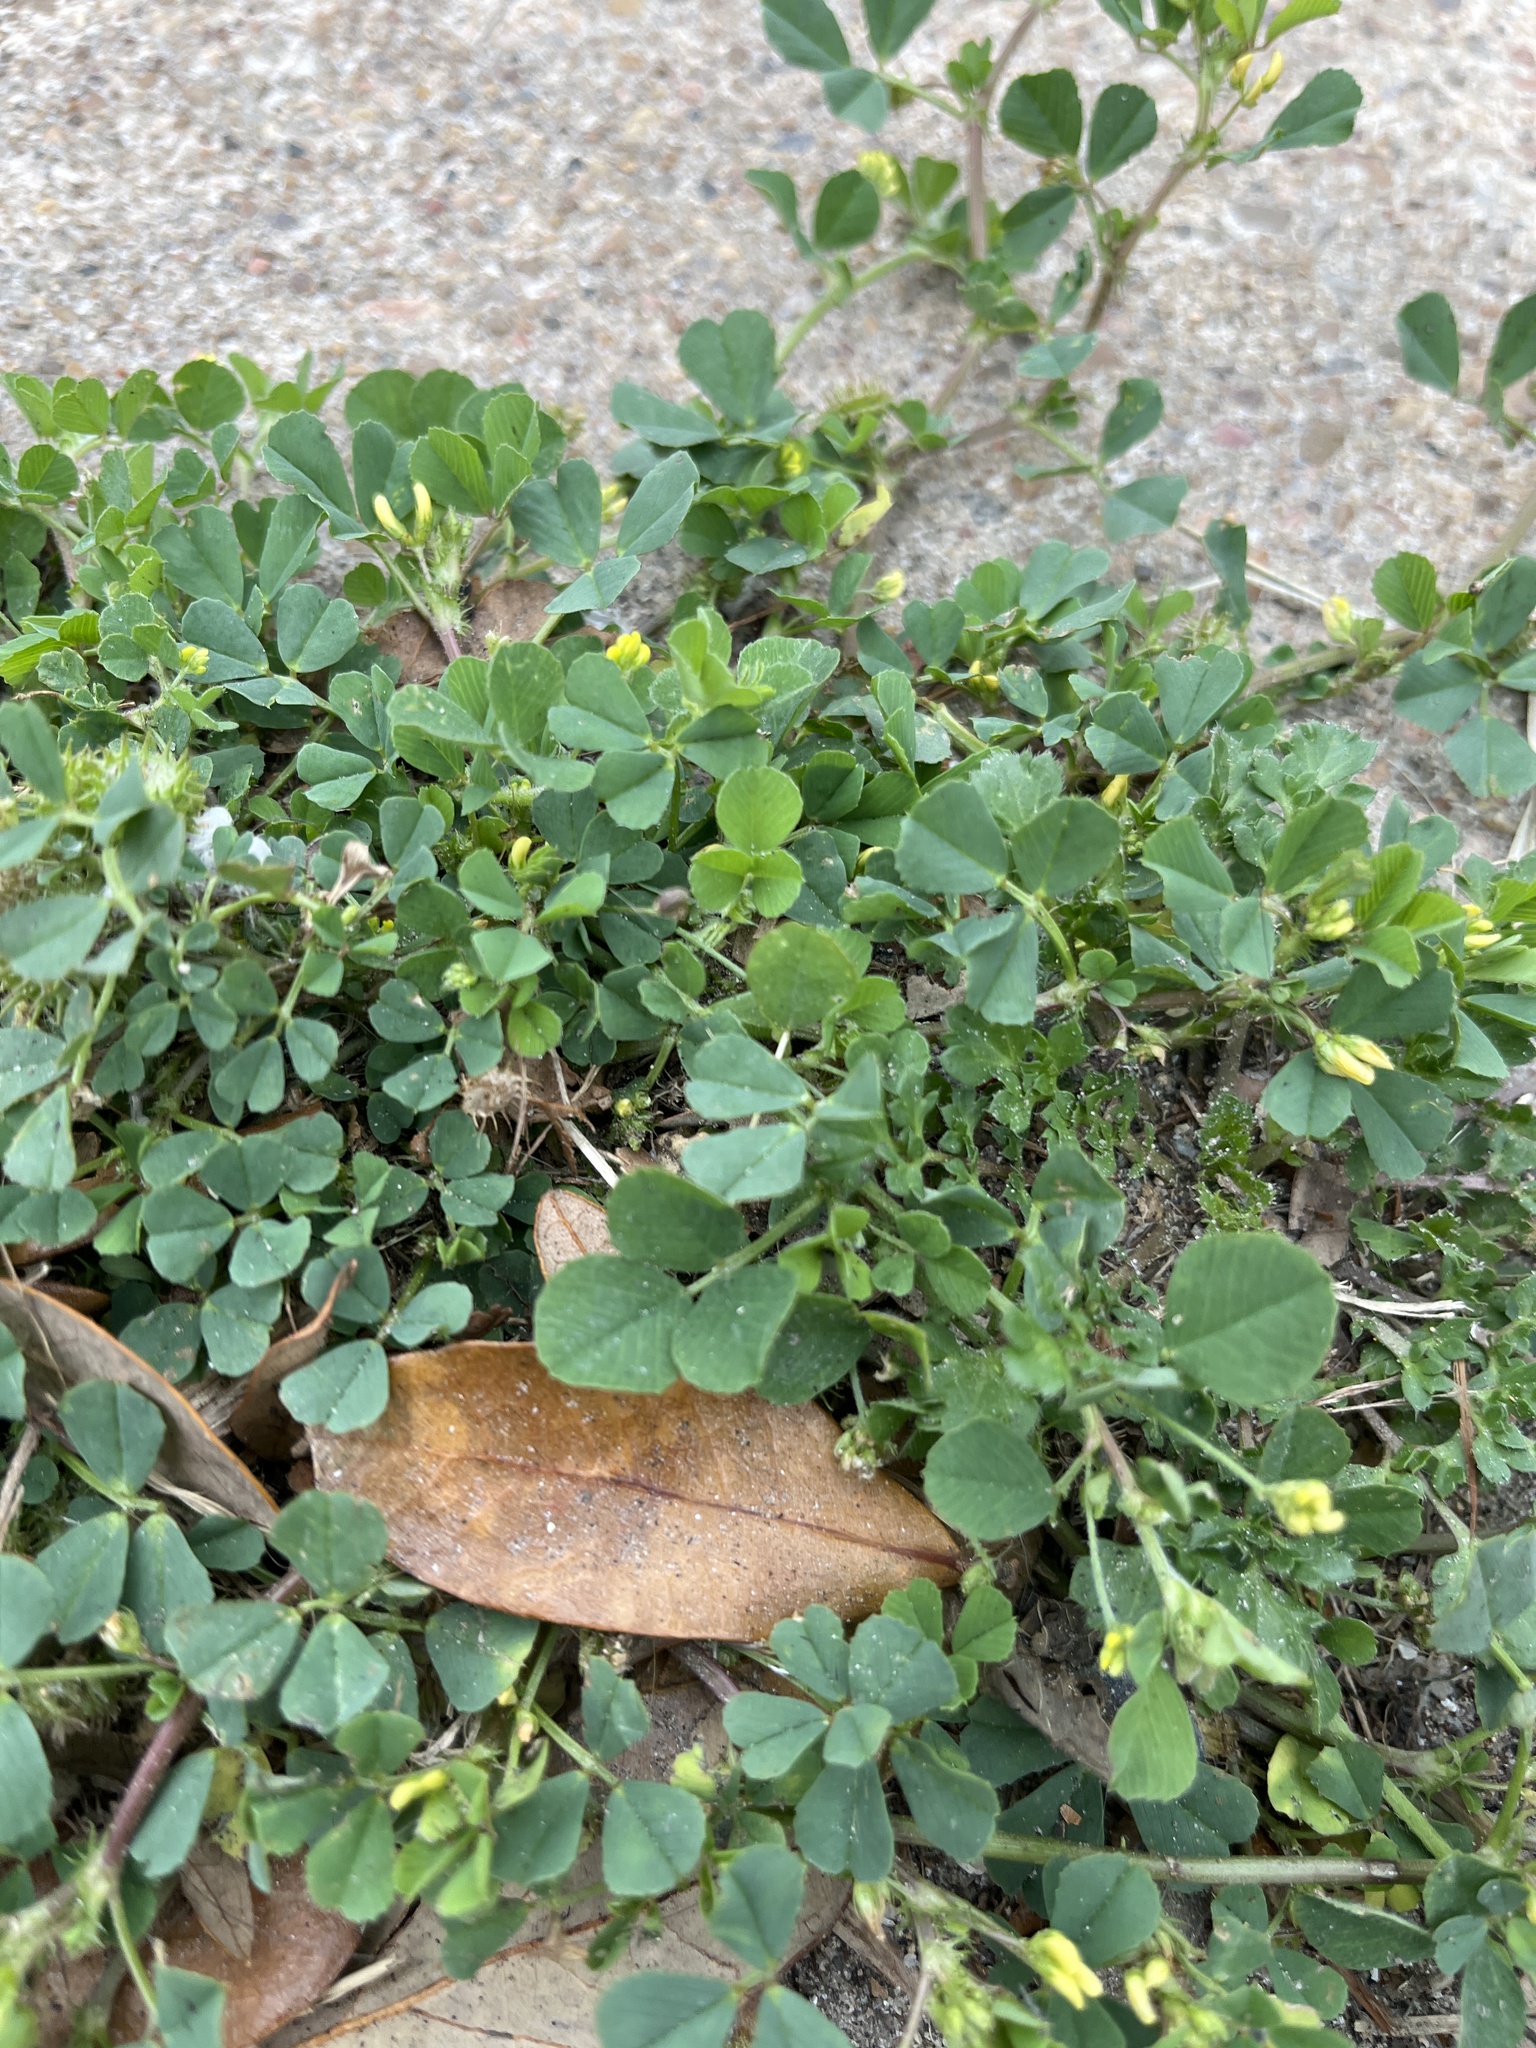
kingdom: Plantae
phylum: Tracheophyta
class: Magnoliopsida
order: Fabales
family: Fabaceae
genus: Medicago
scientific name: Medicago polymorpha
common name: Burclover
